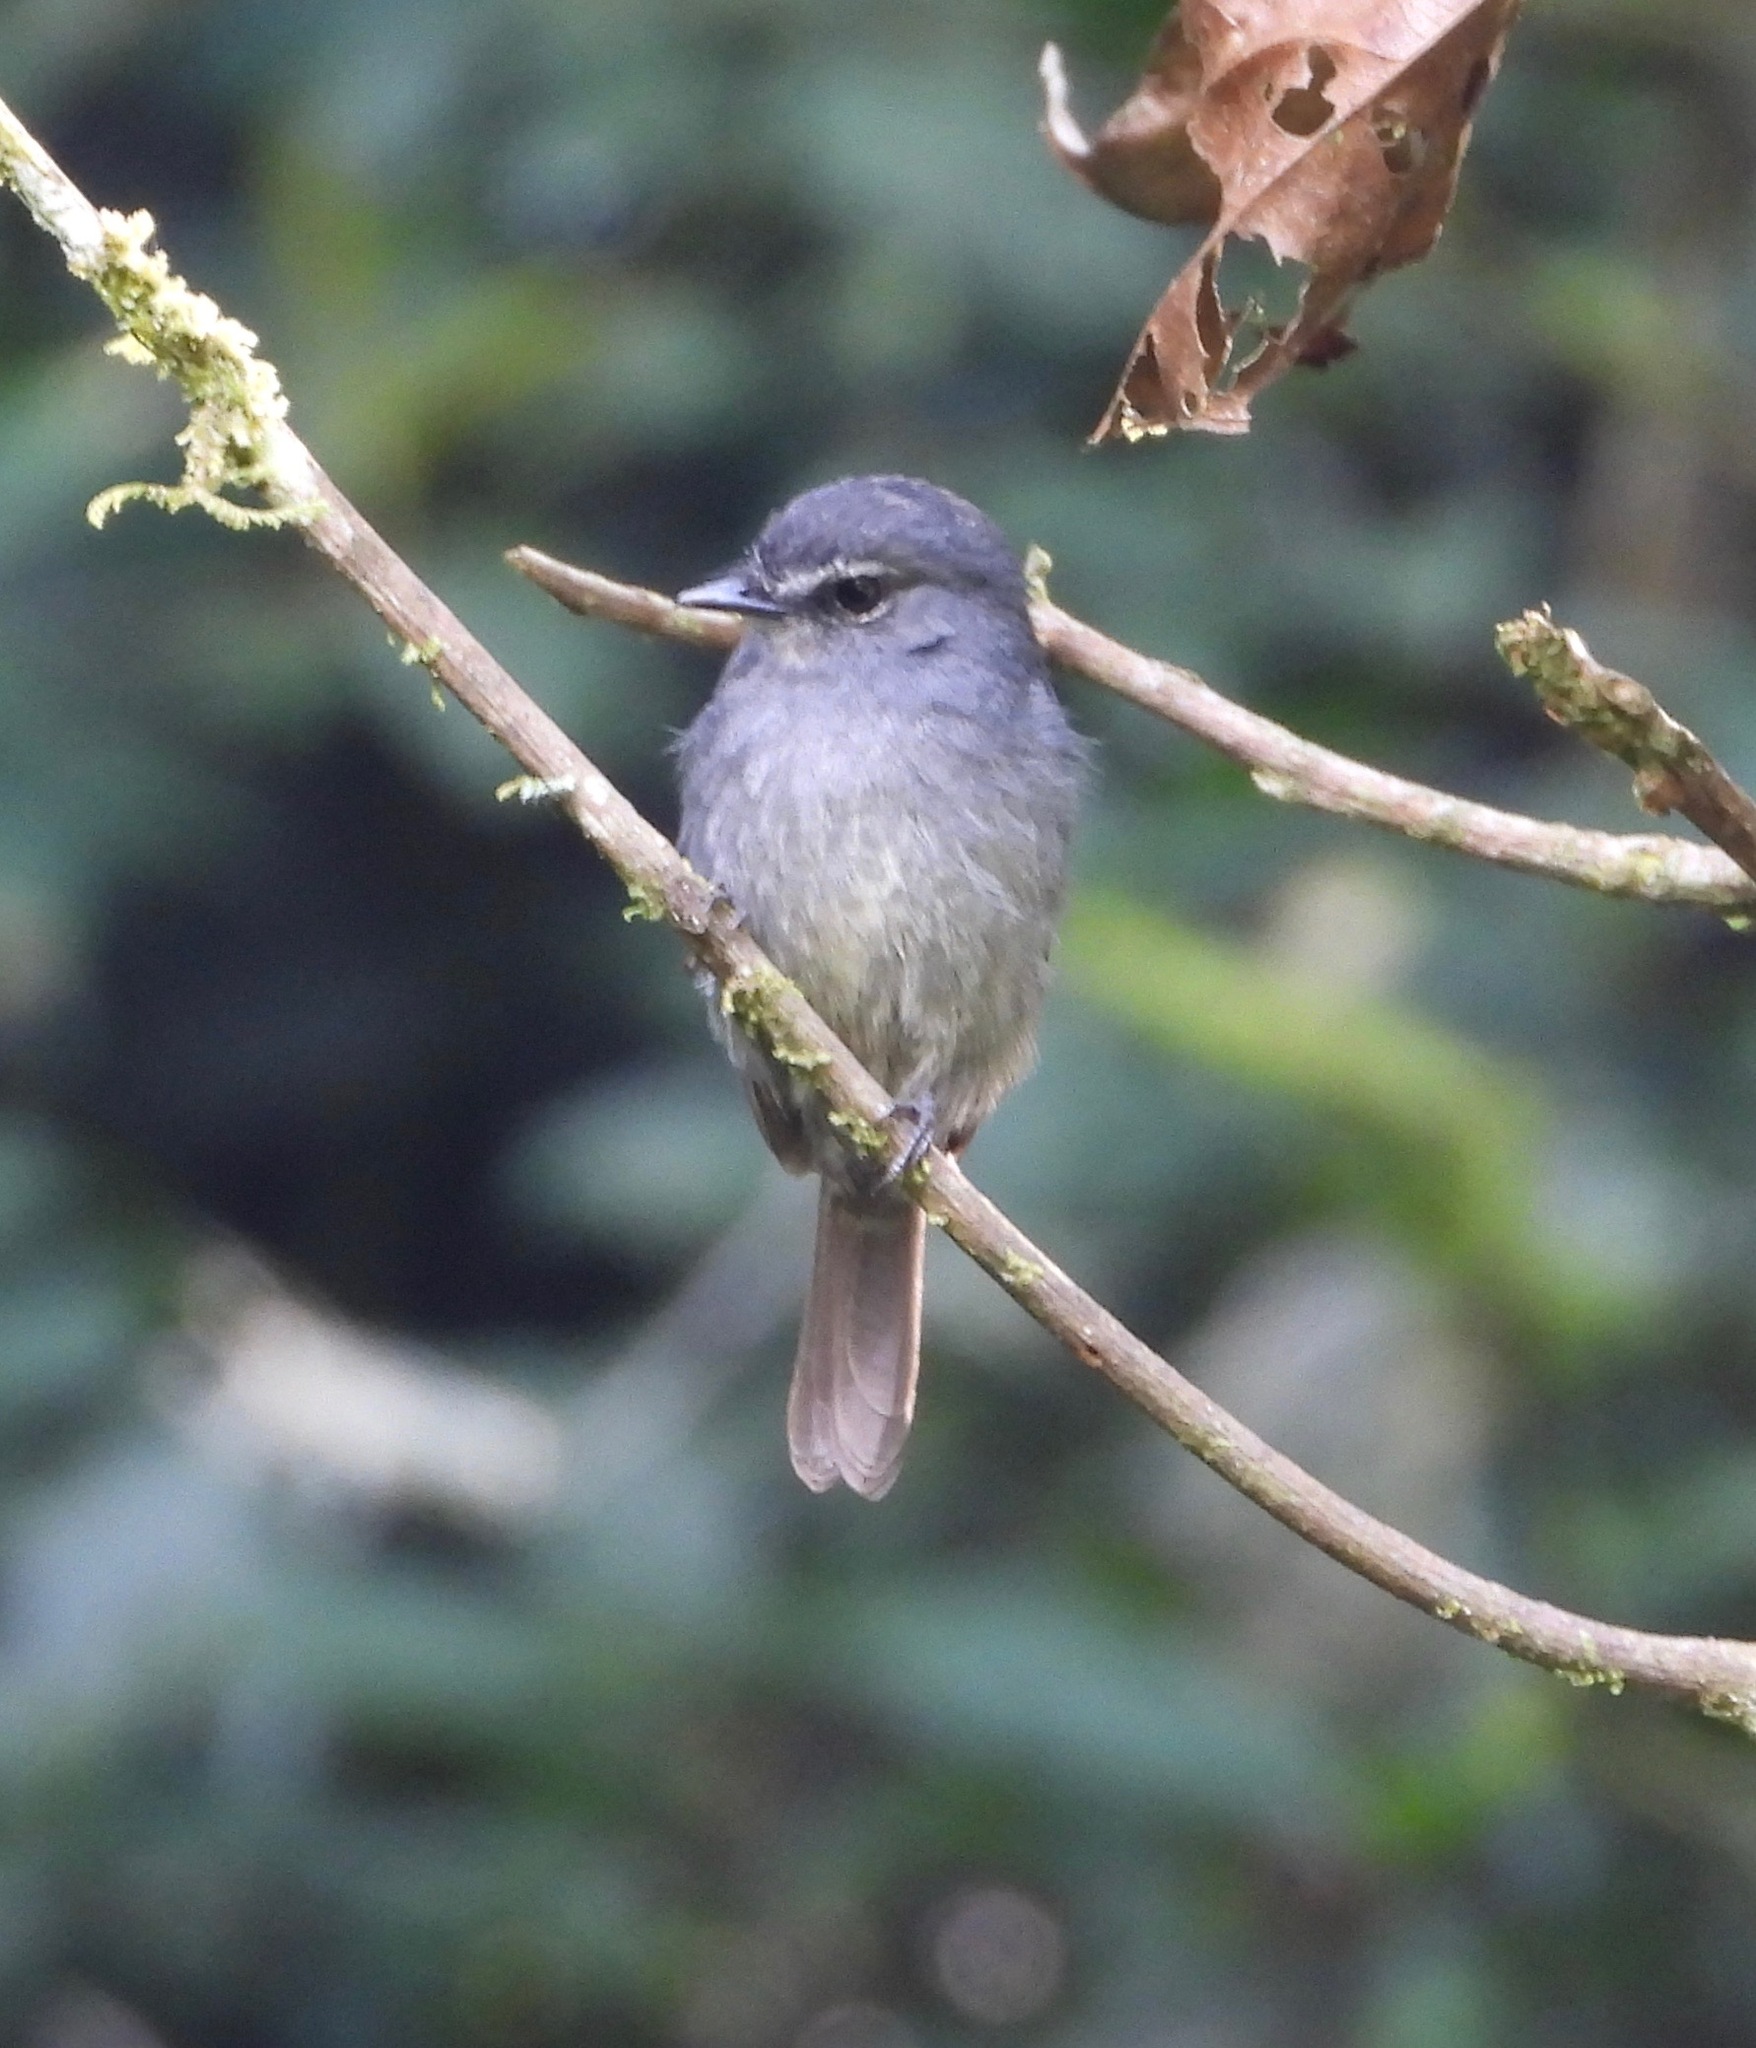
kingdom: Animalia
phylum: Chordata
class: Aves
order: Passeriformes
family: Muscicapidae
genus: Muscicapa
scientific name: Muscicapa comitata
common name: Dusky-blue flycatcher
